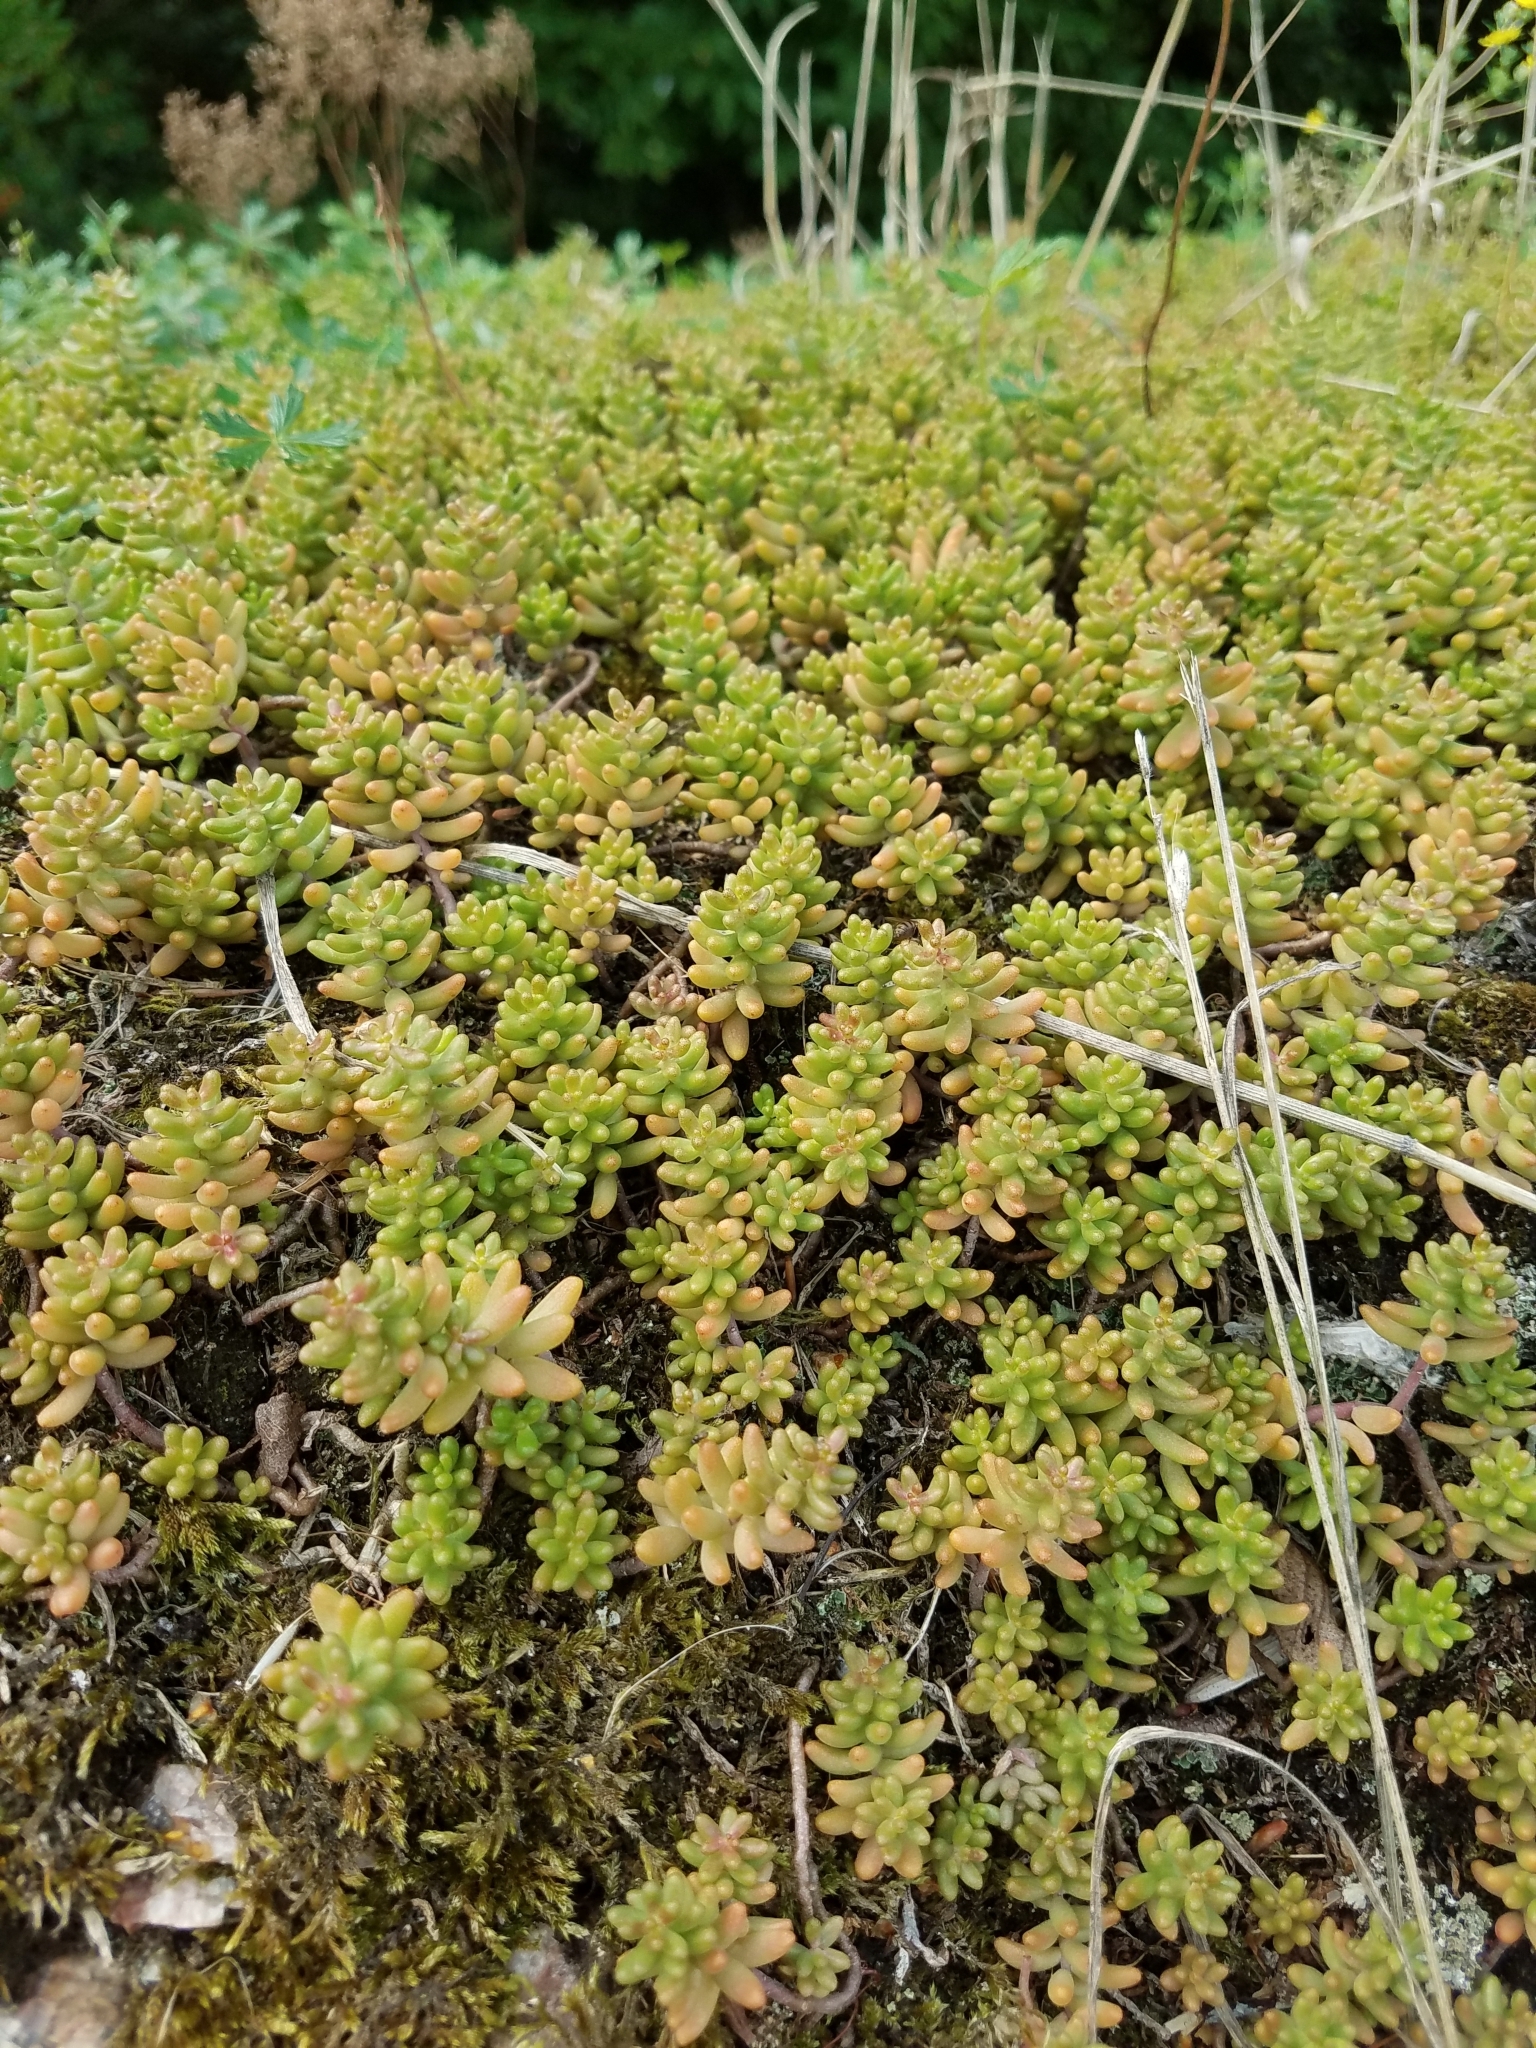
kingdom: Plantae
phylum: Tracheophyta
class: Magnoliopsida
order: Saxifragales
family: Crassulaceae
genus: Sedum
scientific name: Sedum album
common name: White stonecrop
